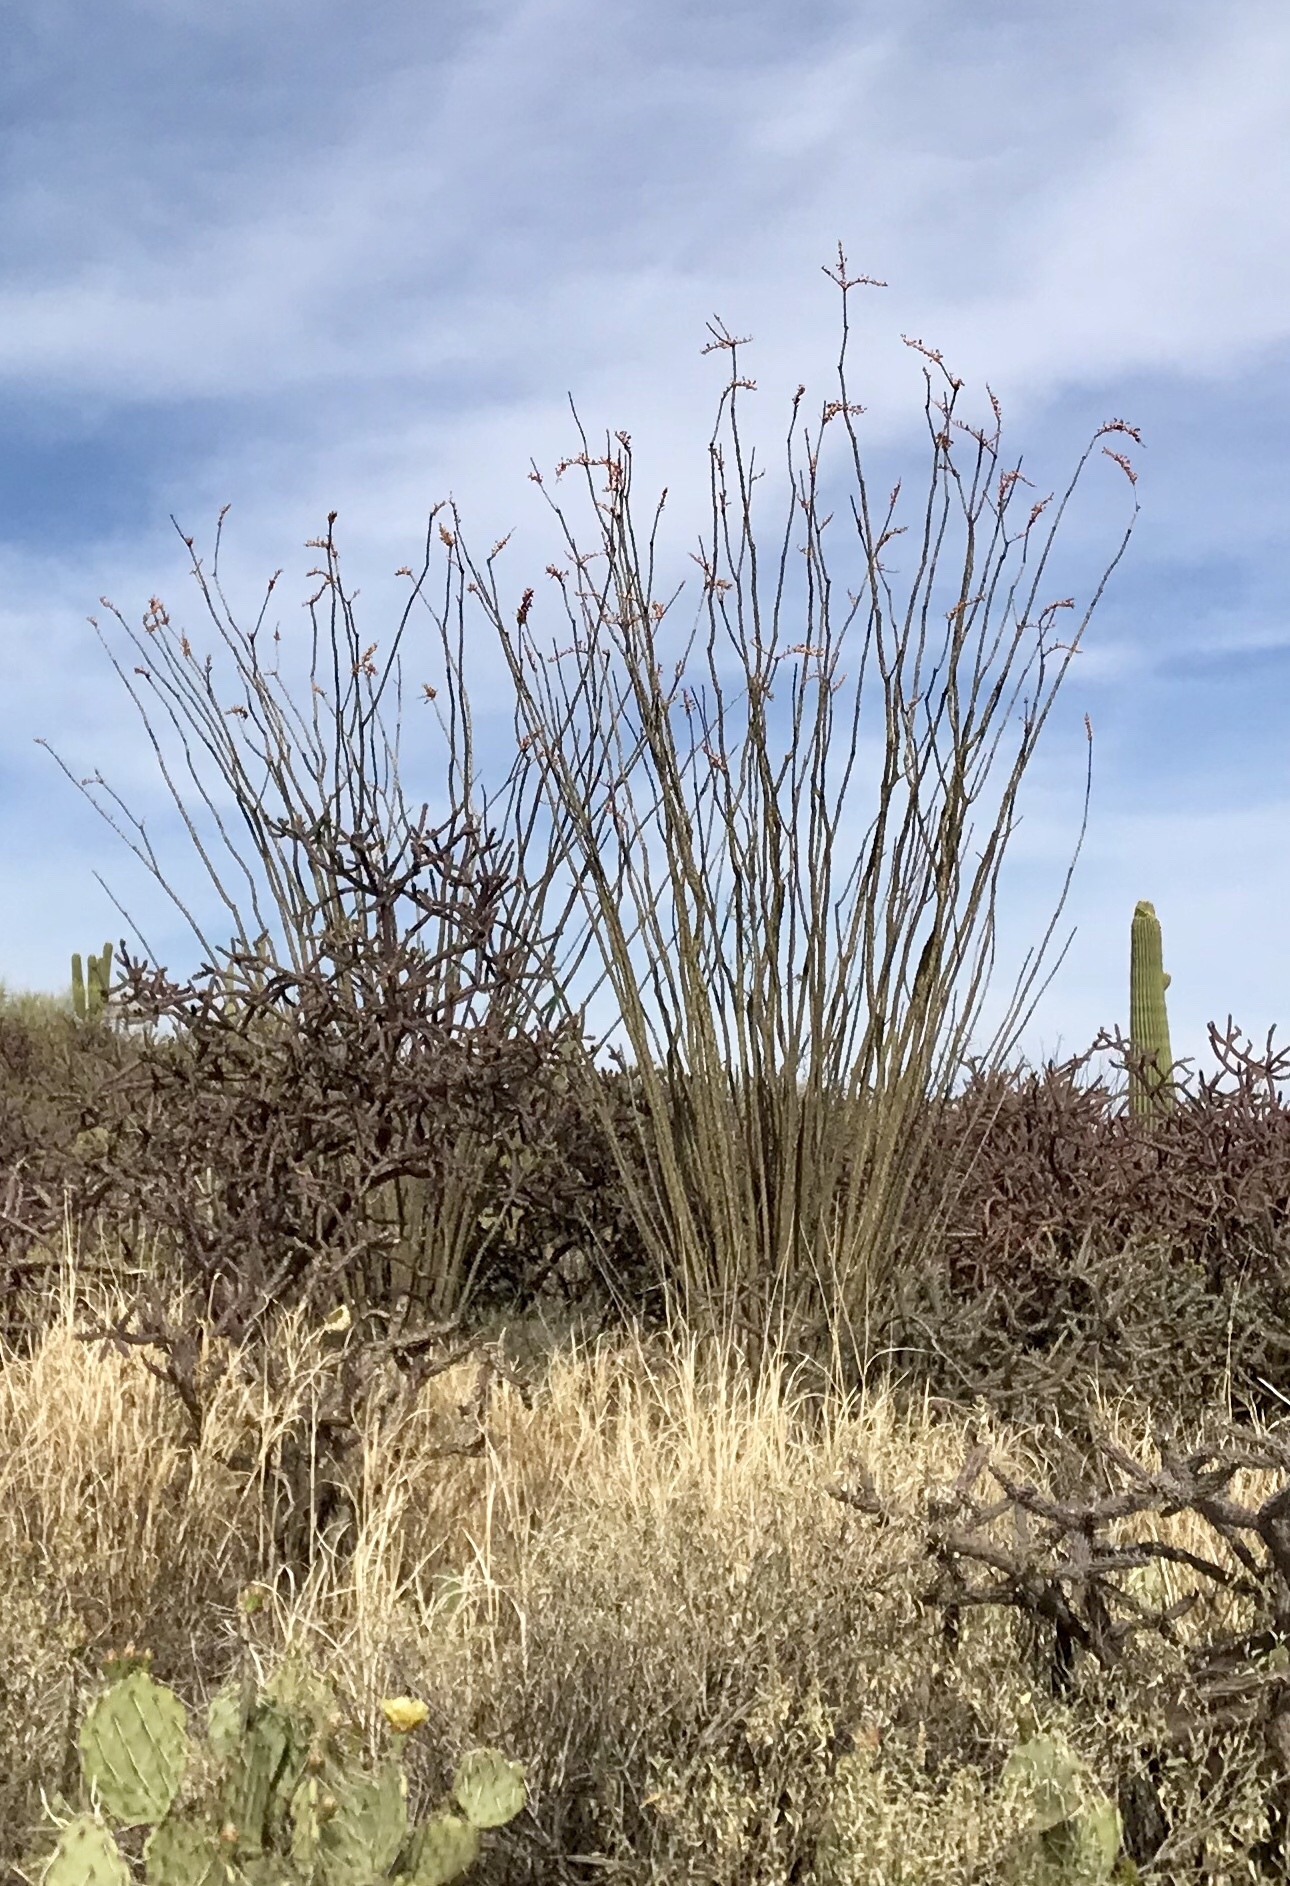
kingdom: Plantae
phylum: Tracheophyta
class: Magnoliopsida
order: Ericales
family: Fouquieriaceae
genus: Fouquieria
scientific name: Fouquieria splendens
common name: Vine-cactus
